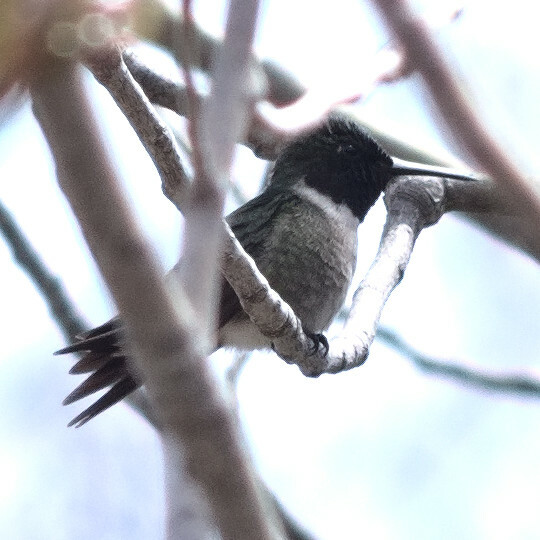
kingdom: Animalia
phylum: Chordata
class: Aves
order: Apodiformes
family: Trochilidae
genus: Archilochus
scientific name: Archilochus colubris
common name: Ruby-throated hummingbird
